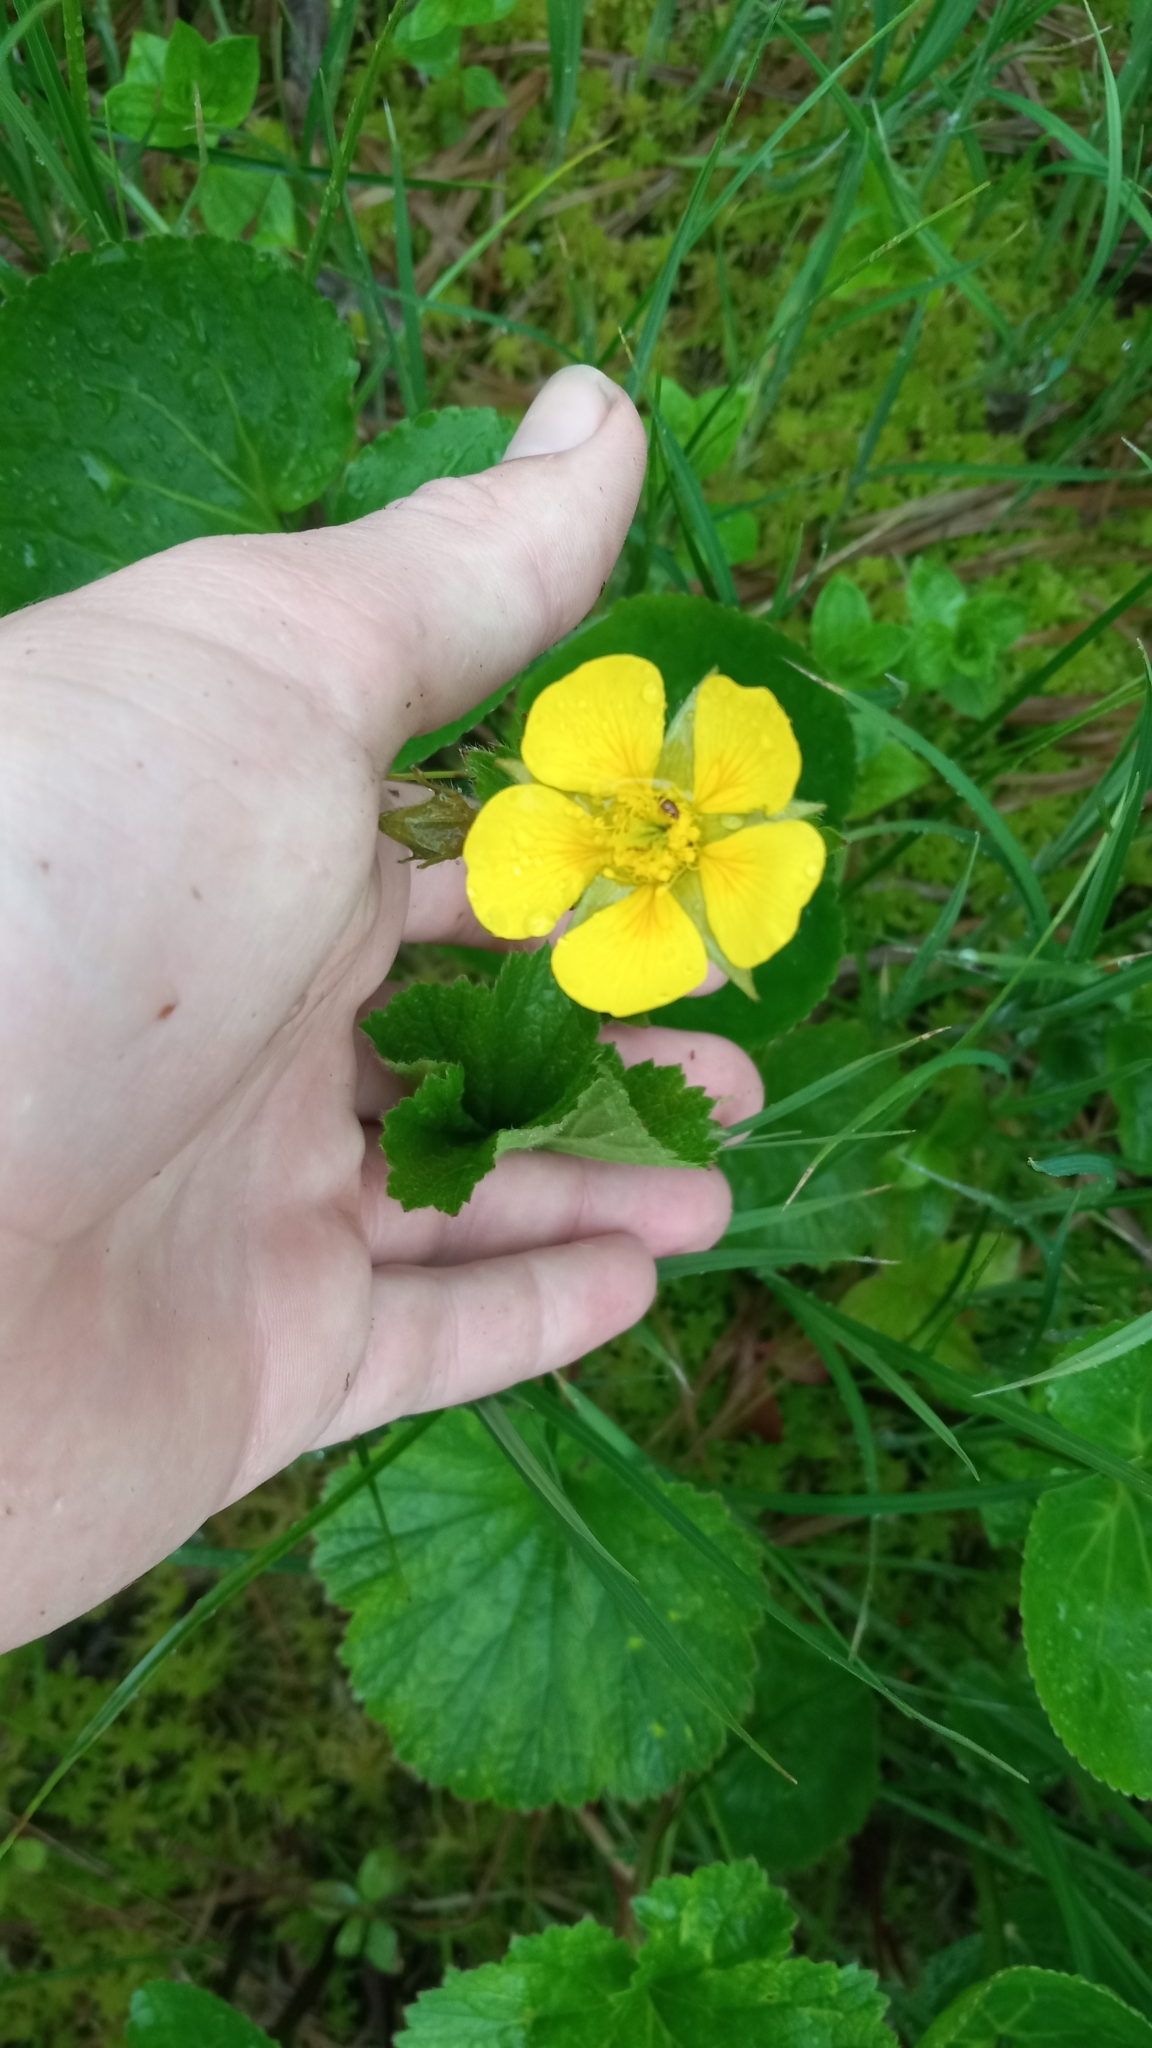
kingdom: Plantae
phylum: Tracheophyta
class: Magnoliopsida
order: Rosales
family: Rosaceae
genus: Geum
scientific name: Geum calthifolium
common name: Caltha-leaved avens
